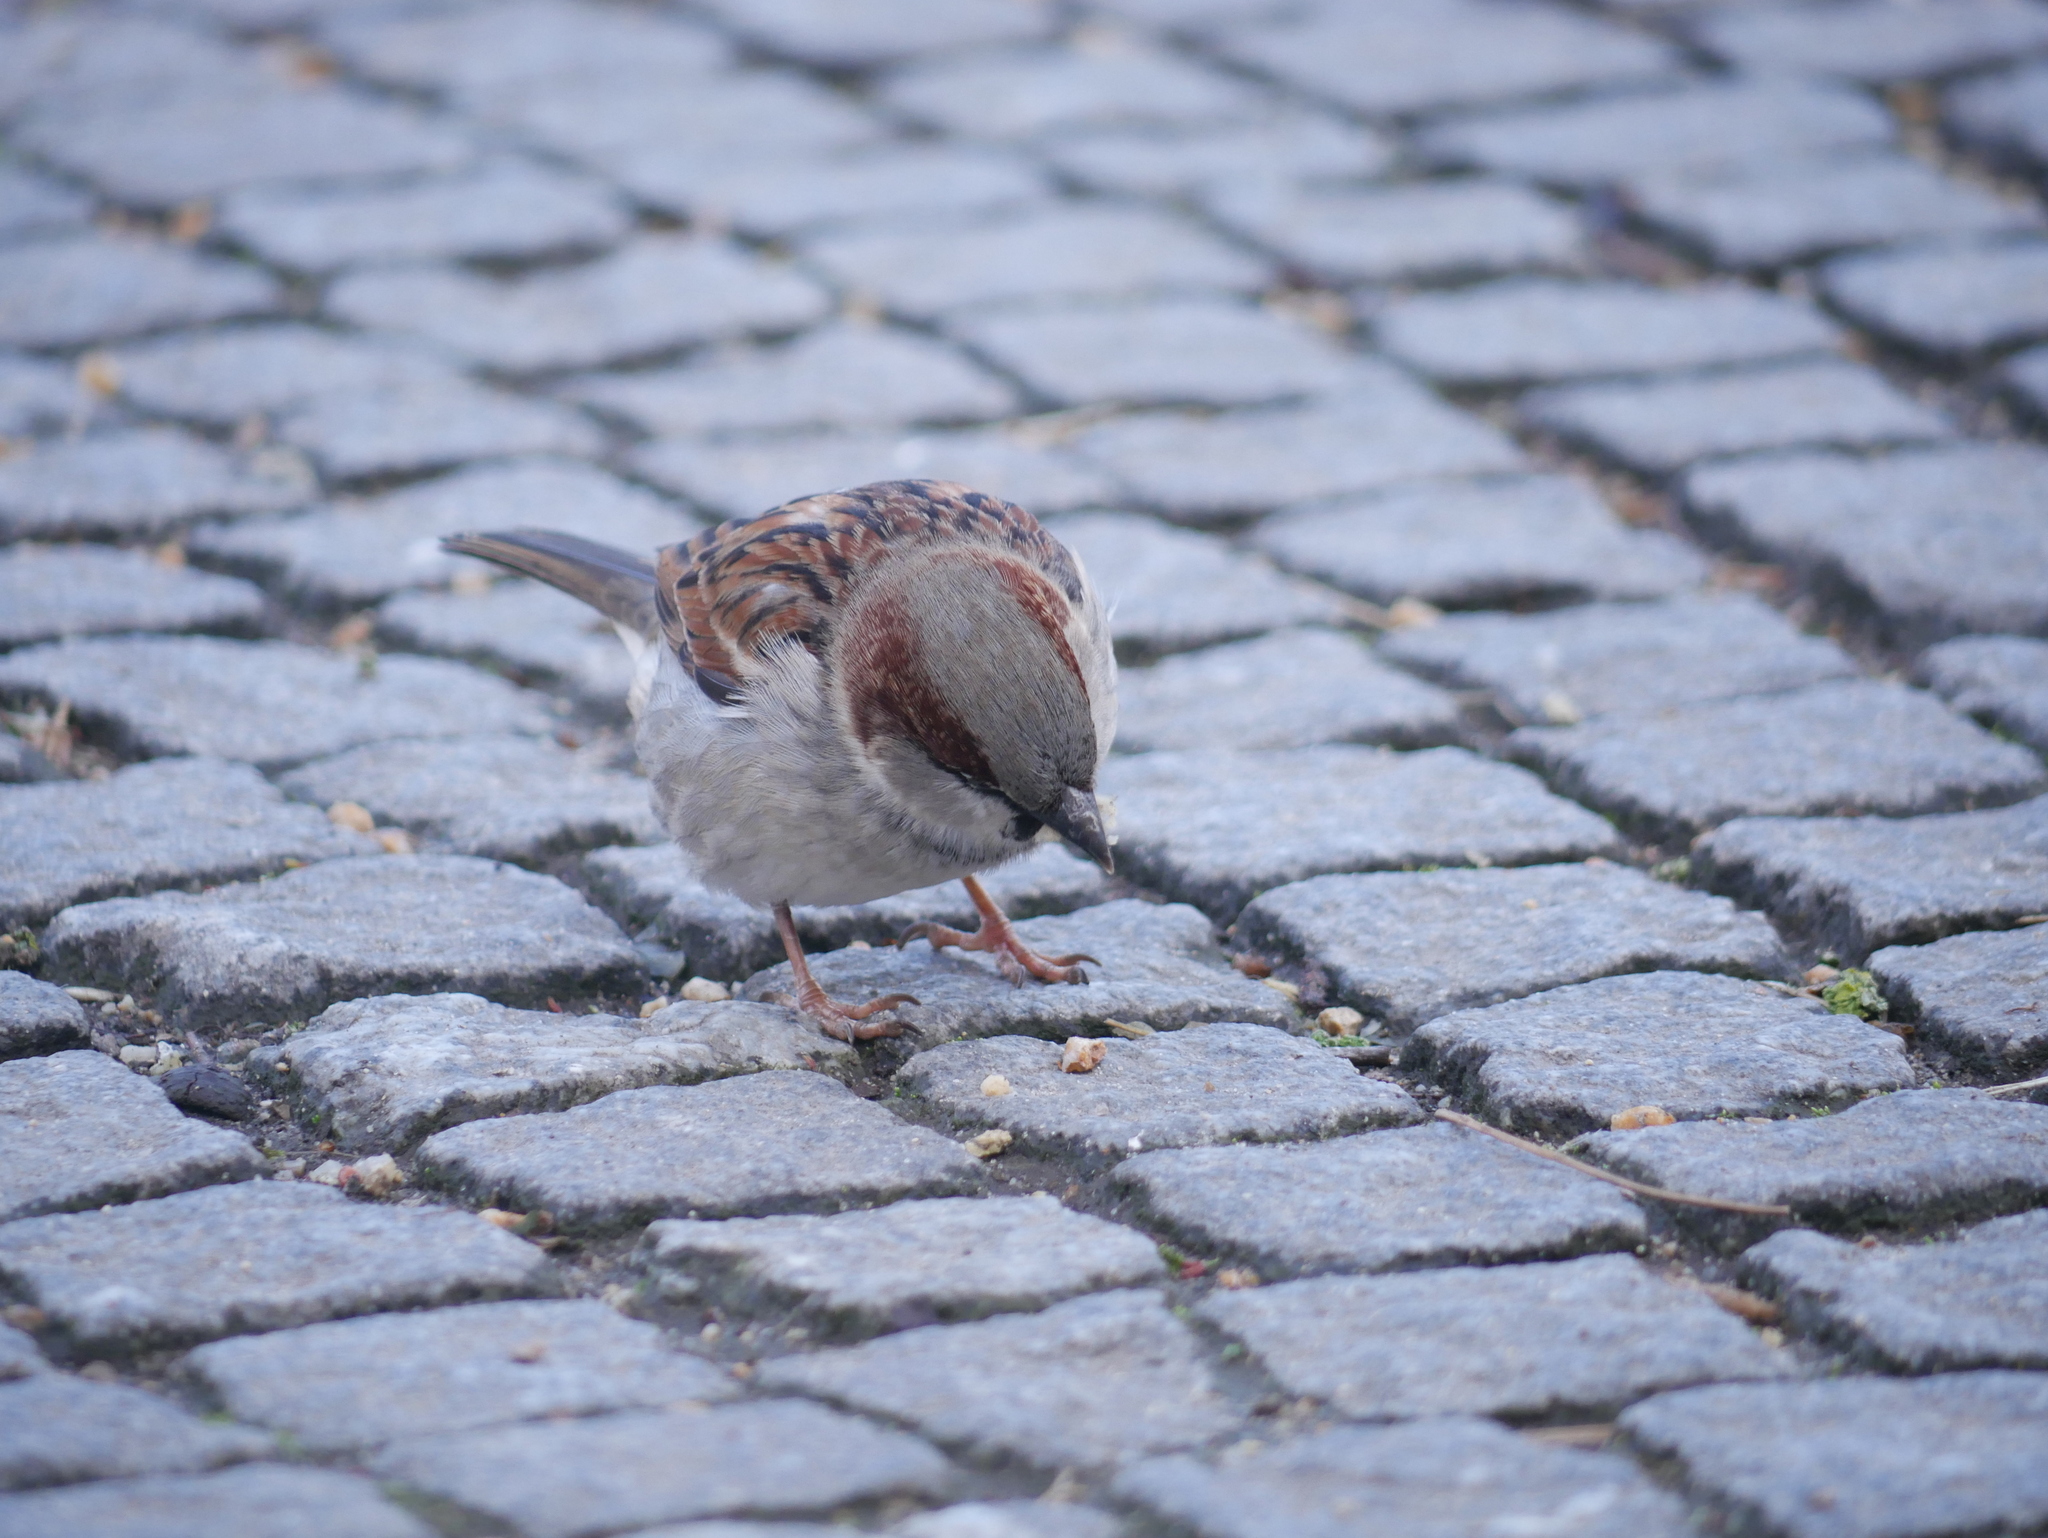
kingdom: Animalia
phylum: Chordata
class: Aves
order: Passeriformes
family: Passeridae
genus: Passer
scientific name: Passer domesticus
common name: House sparrow
